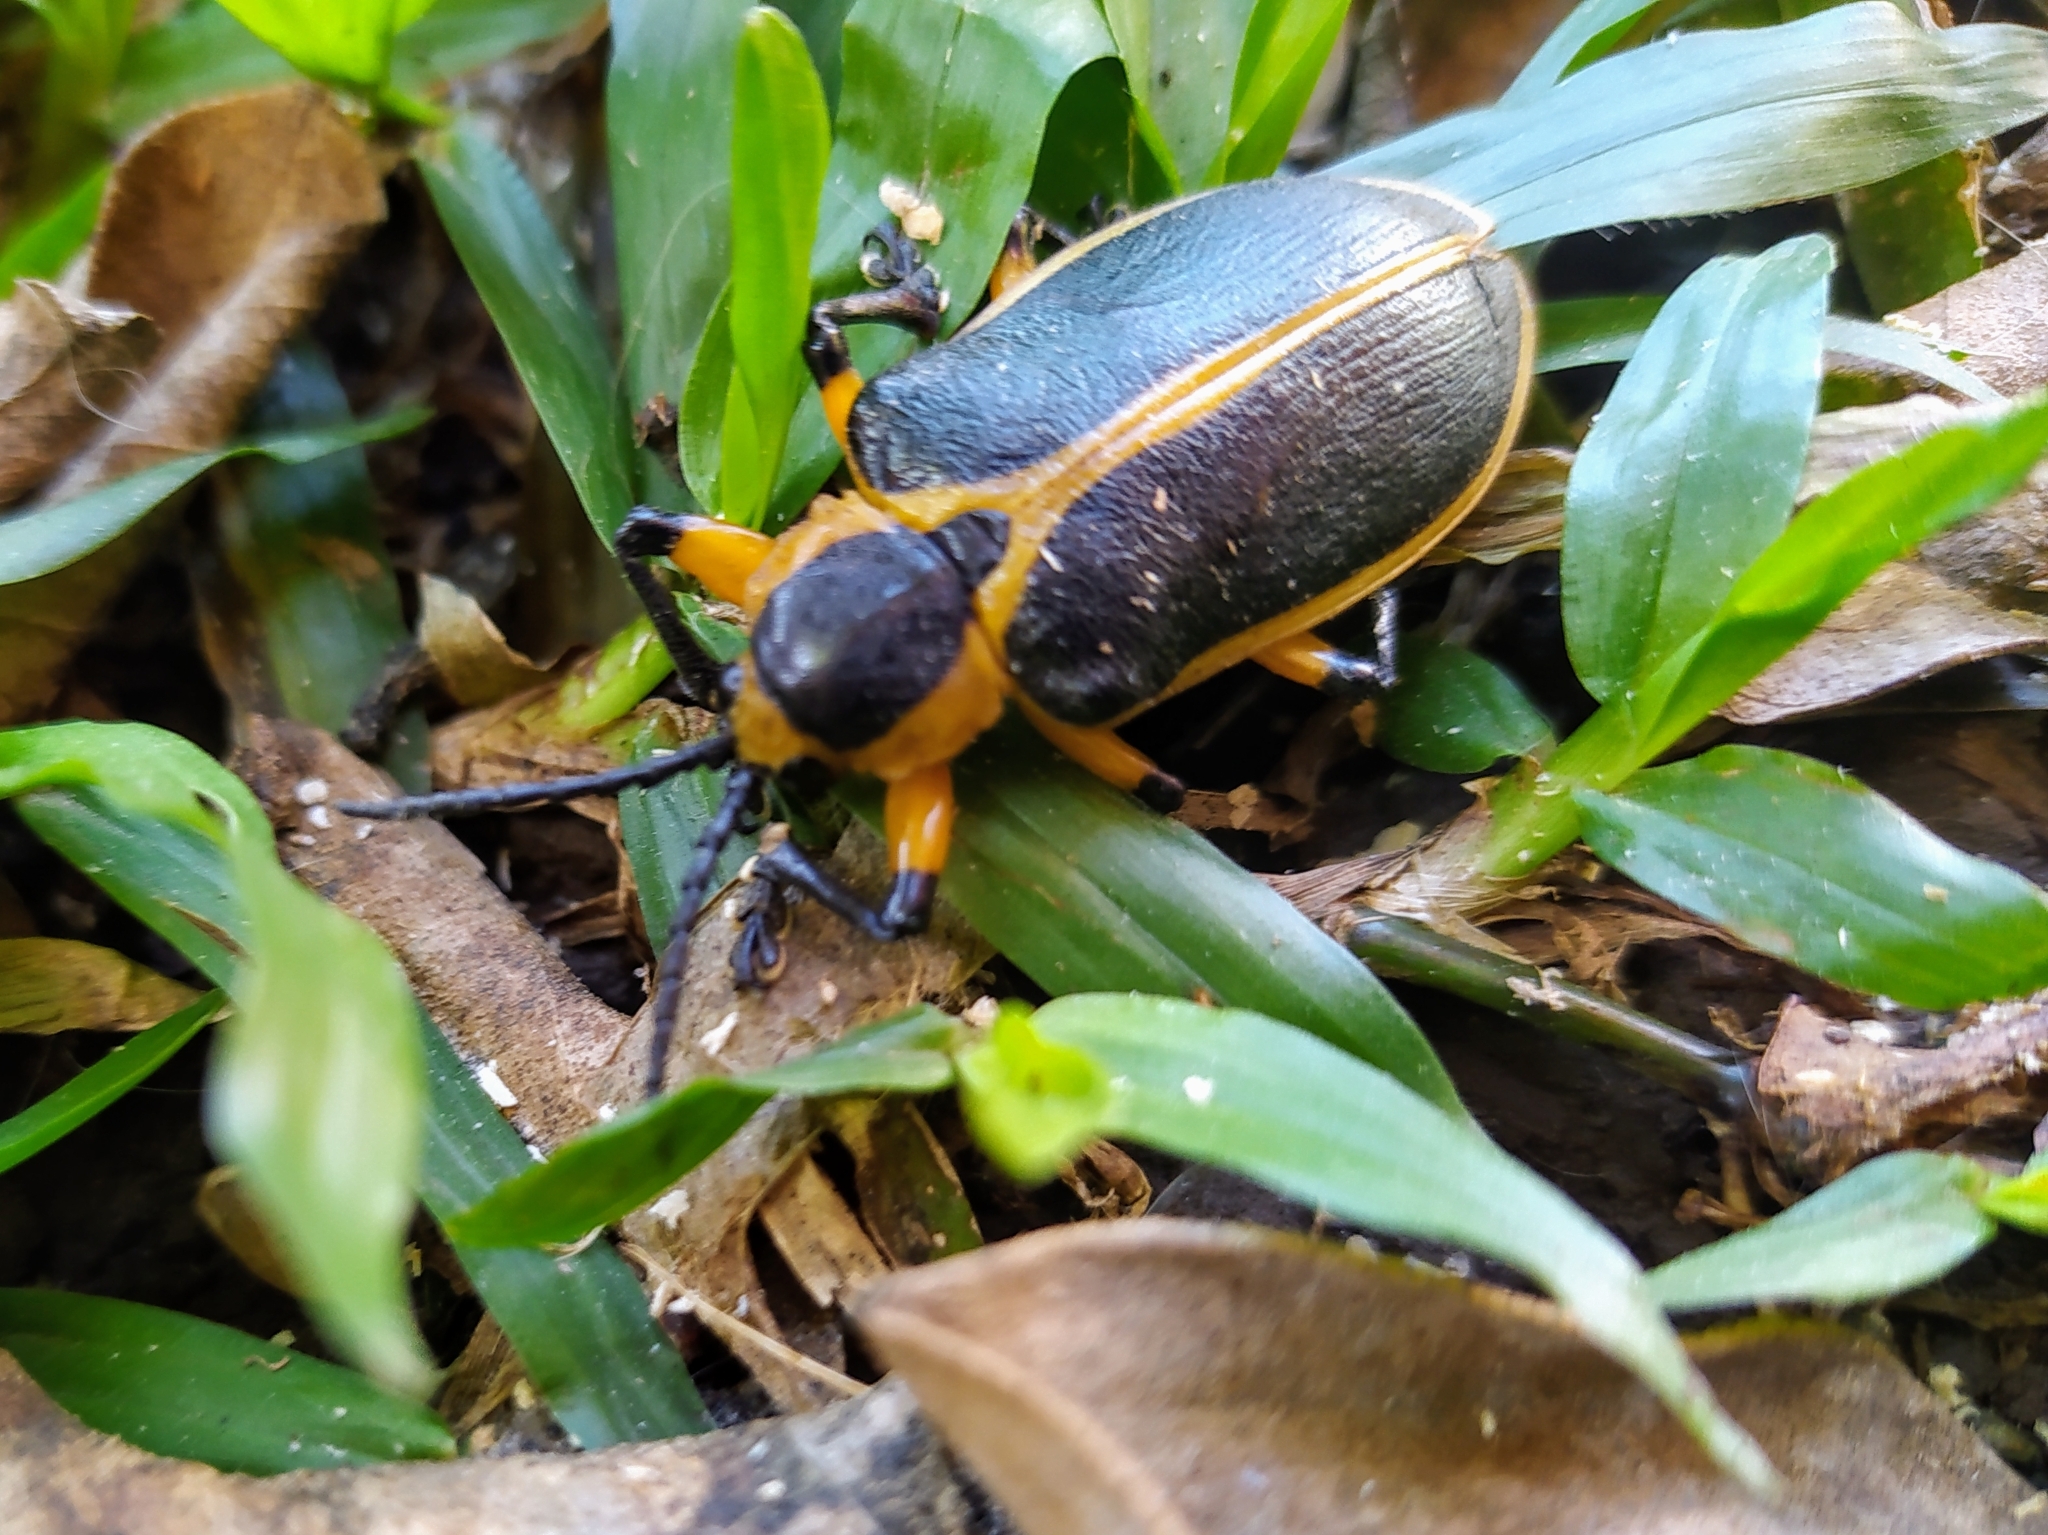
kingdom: Animalia
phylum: Arthropoda
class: Insecta
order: Coleoptera
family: Chrysomelidae
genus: Mecistomela
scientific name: Mecistomela marginata
